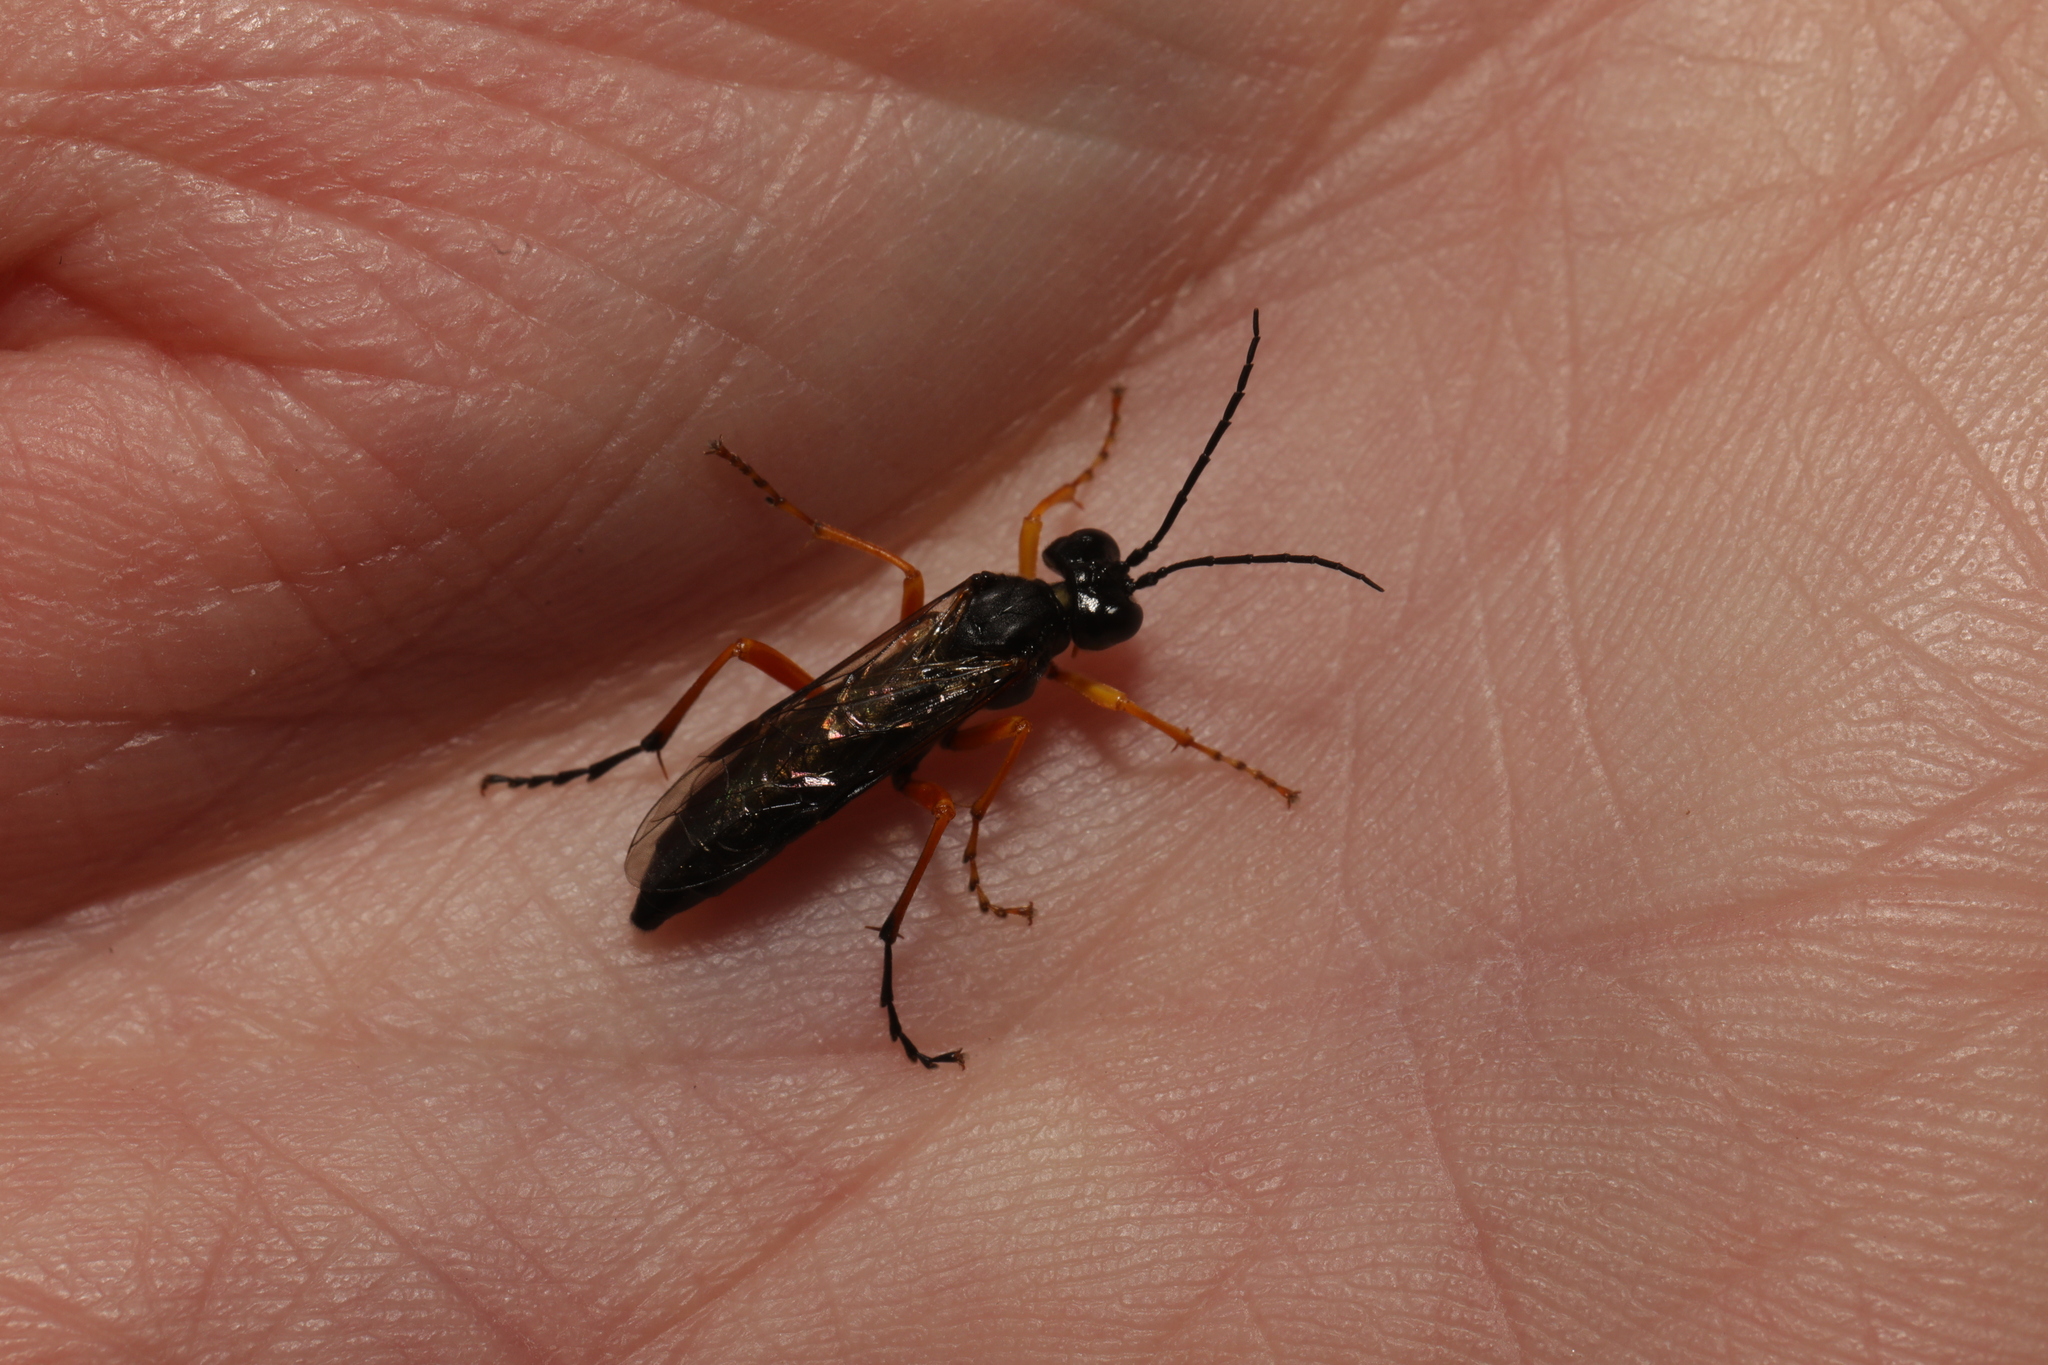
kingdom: Animalia
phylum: Arthropoda
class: Insecta
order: Hymenoptera
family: Tenthredinidae
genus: Tenthredo
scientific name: Tenthredo atra
